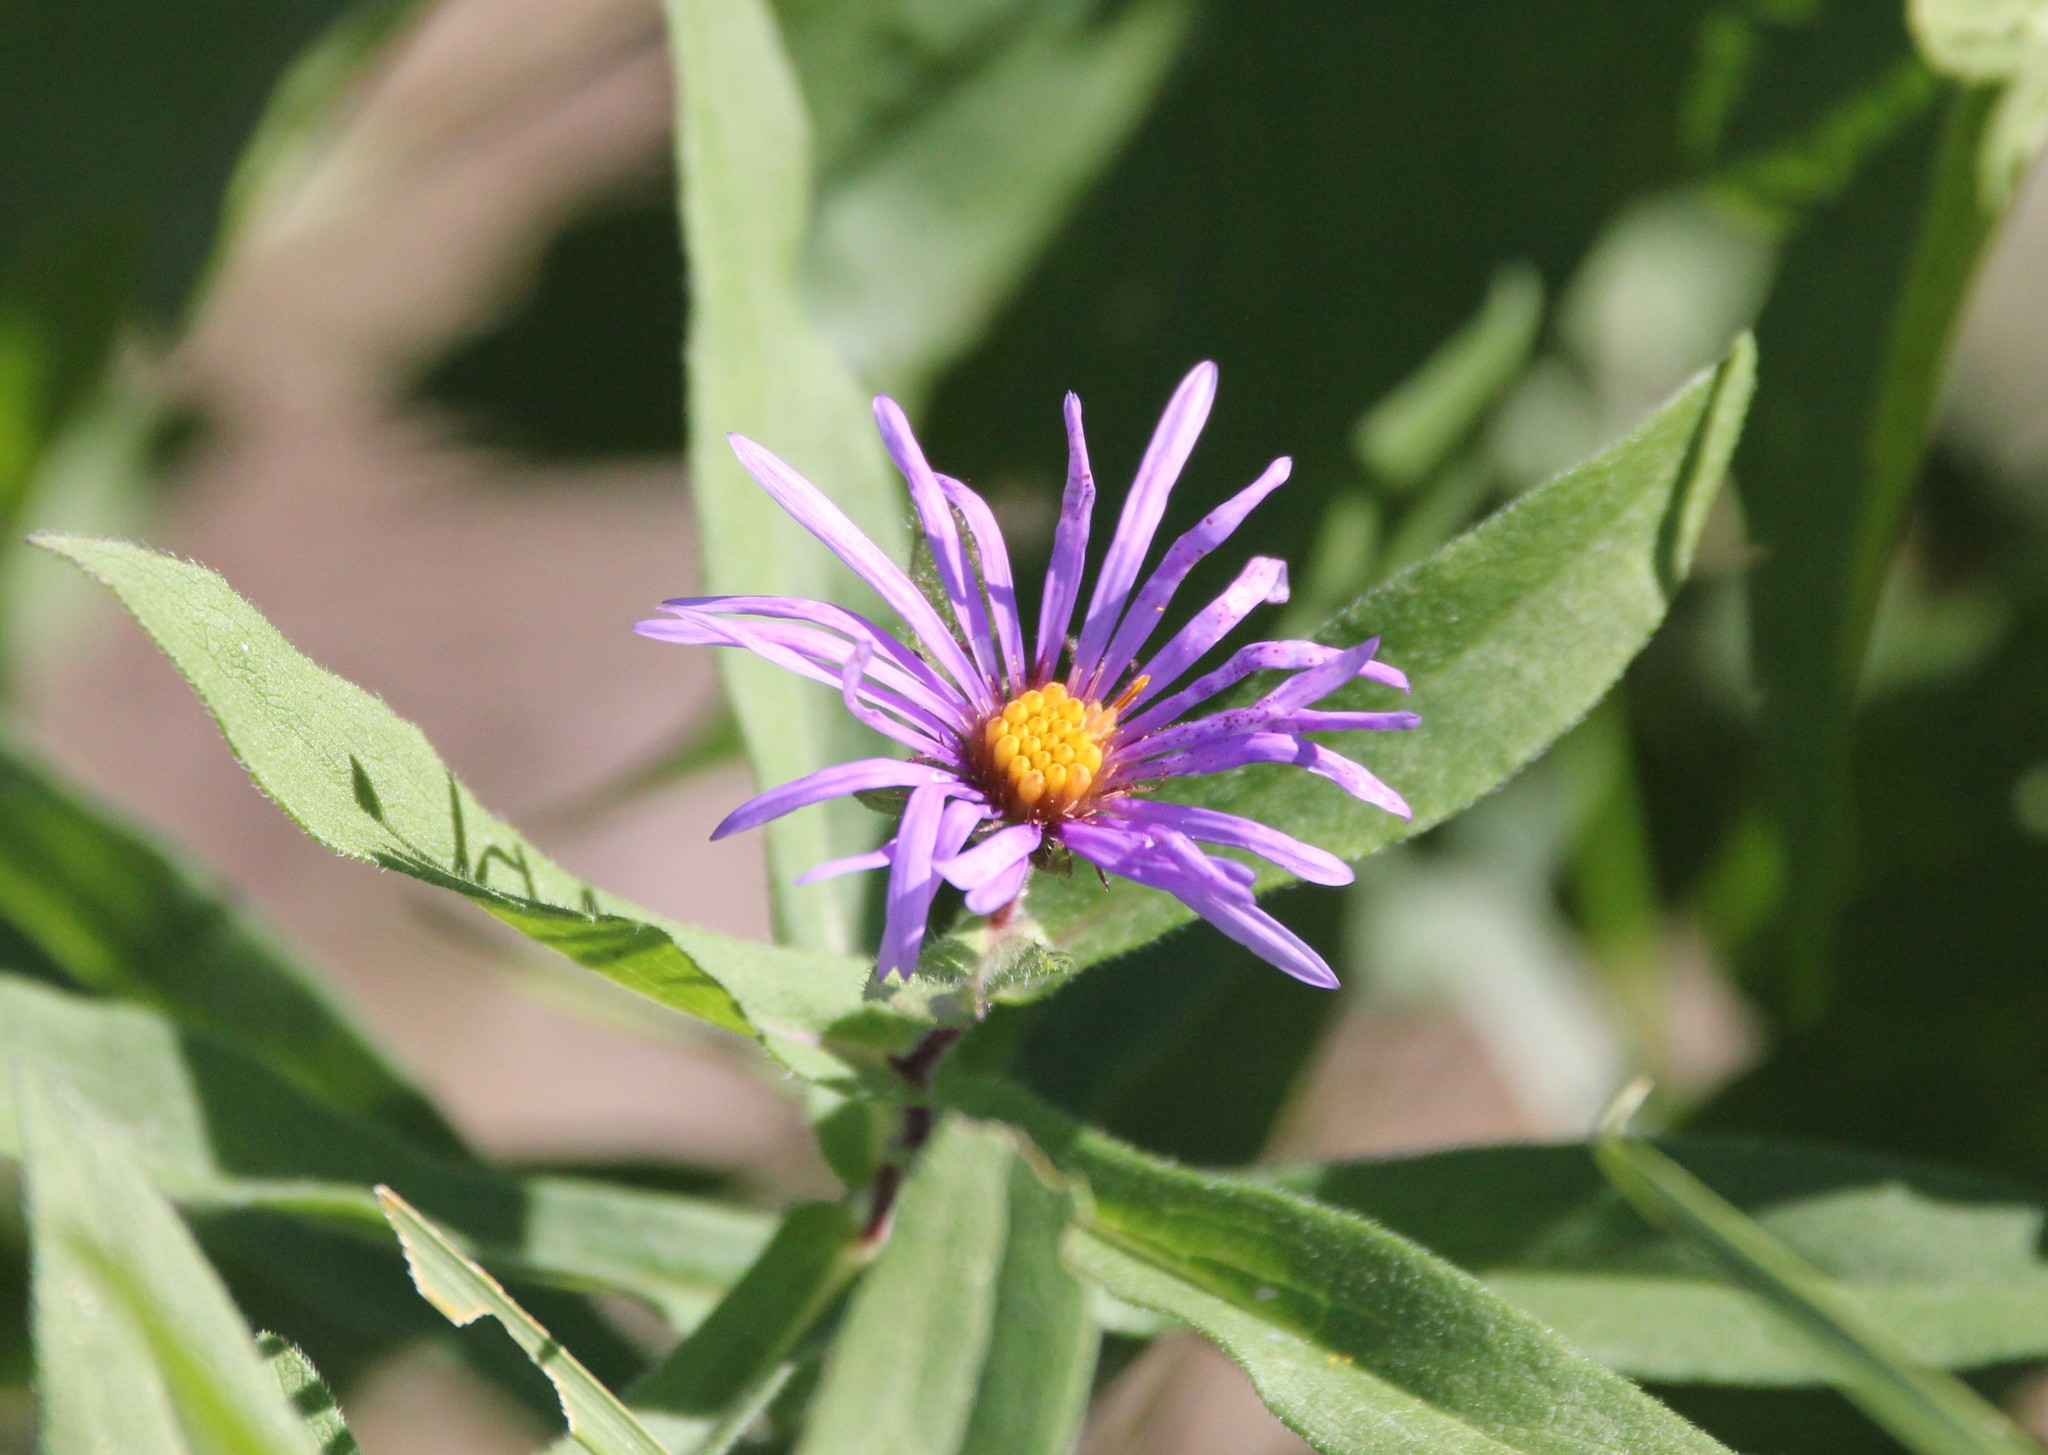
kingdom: Plantae
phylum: Tracheophyta
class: Magnoliopsida
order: Asterales
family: Asteraceae
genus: Symphyotrichum
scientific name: Symphyotrichum novae-angliae
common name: Michaelmas daisy
